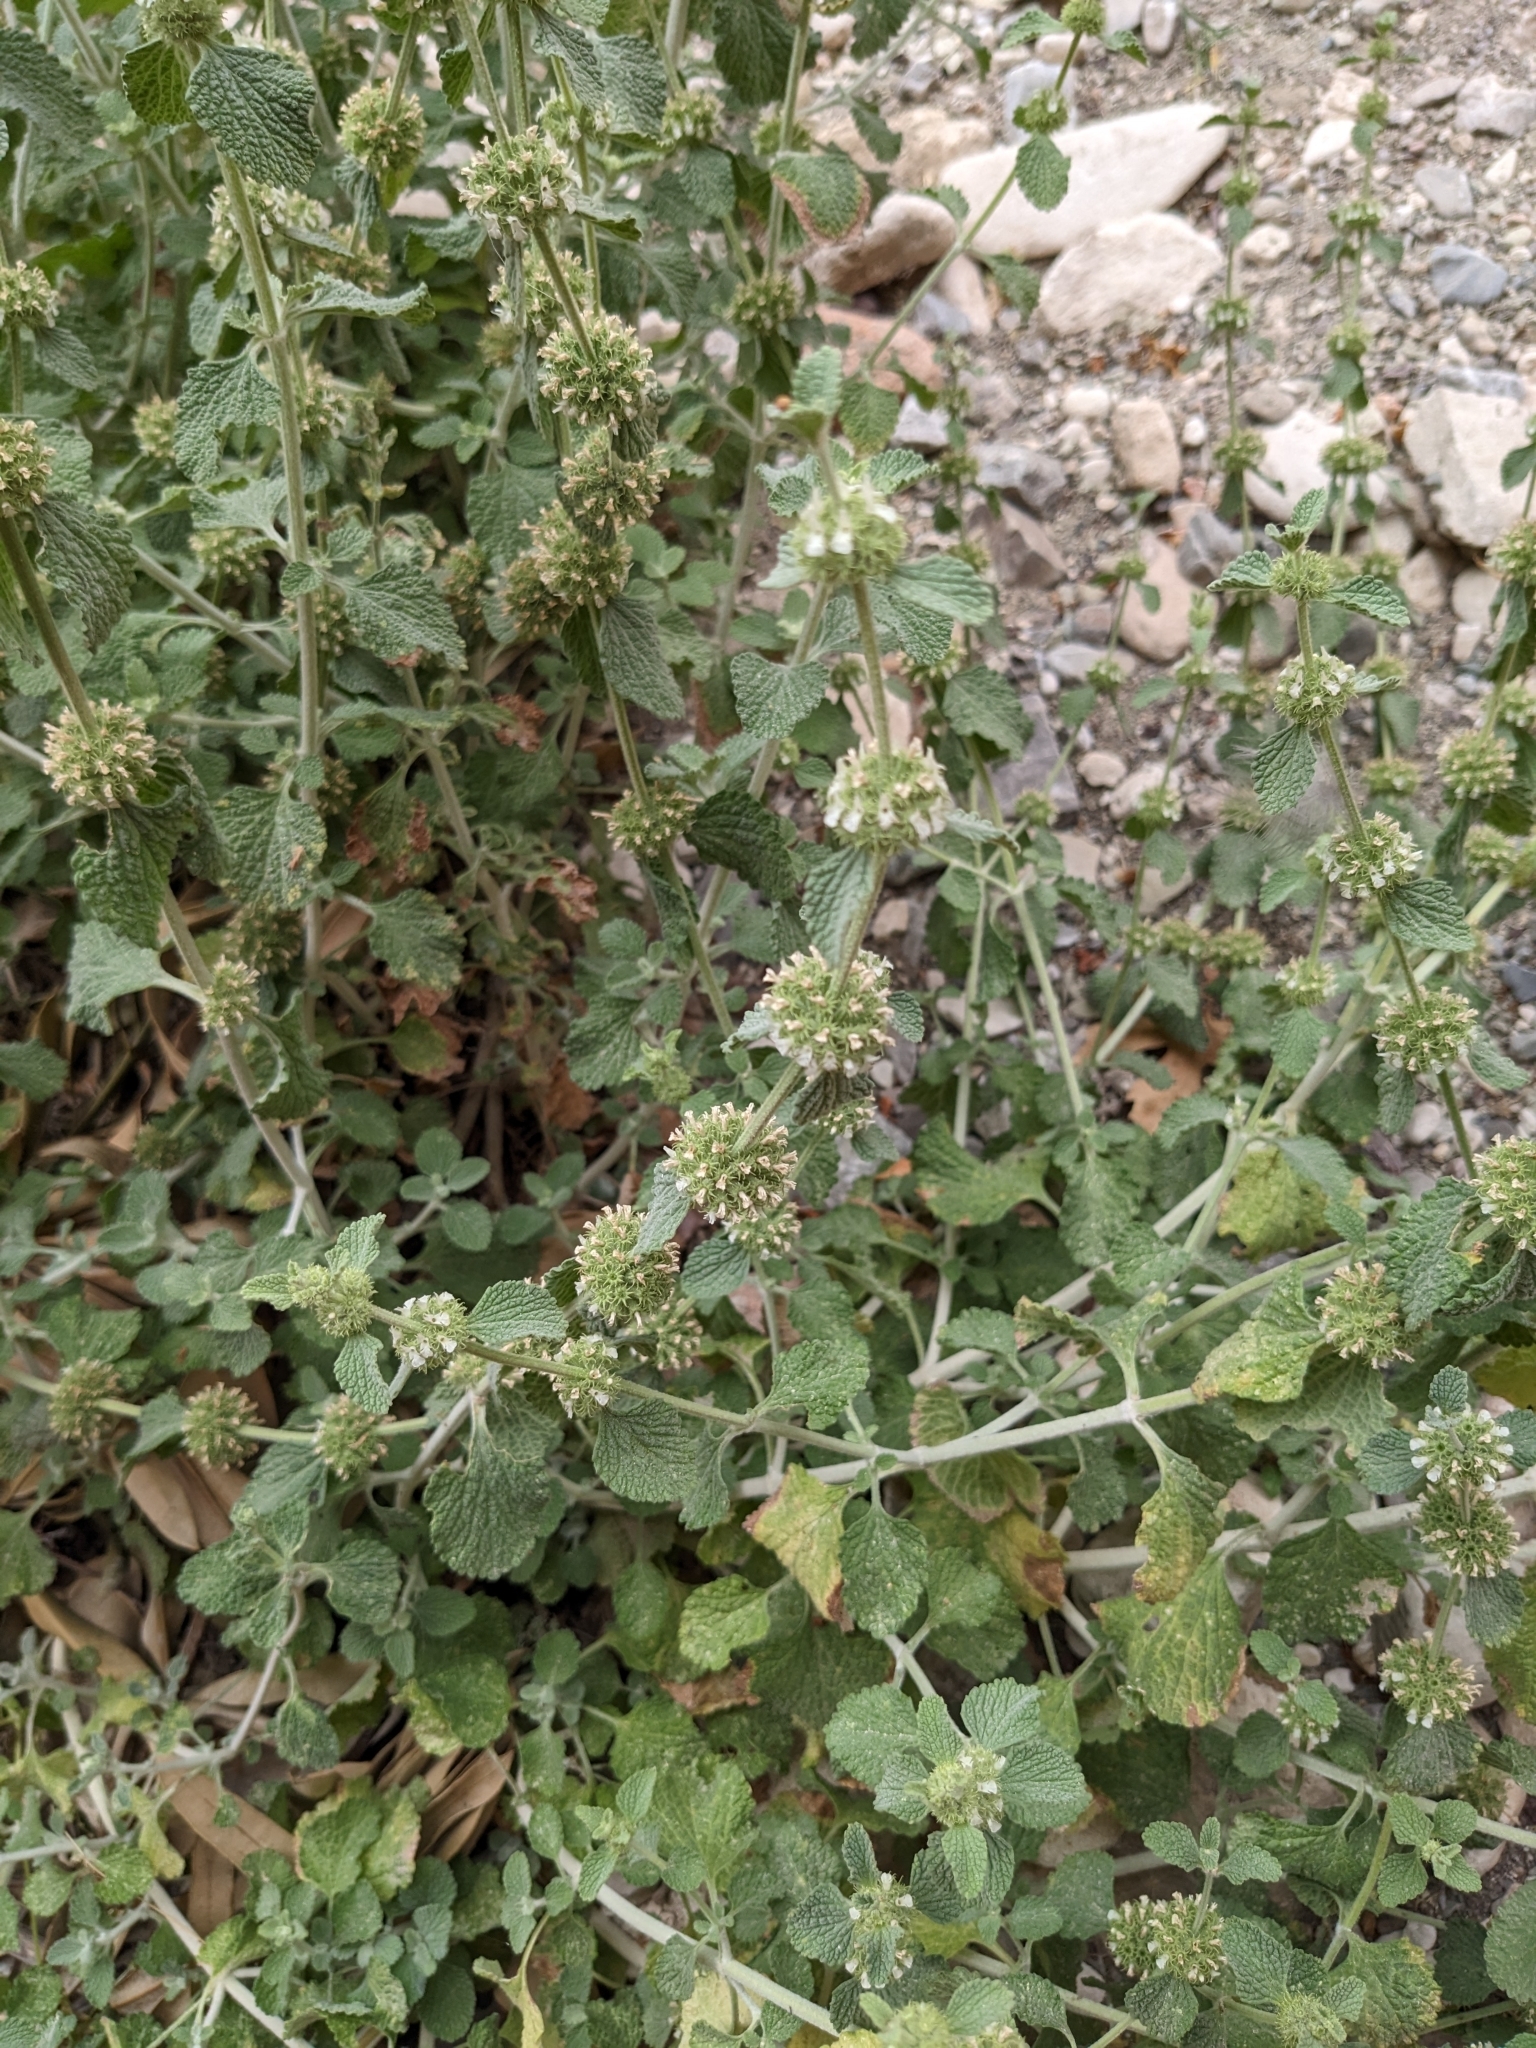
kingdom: Plantae
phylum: Tracheophyta
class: Magnoliopsida
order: Lamiales
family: Lamiaceae
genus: Marrubium
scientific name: Marrubium vulgare
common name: Horehound
